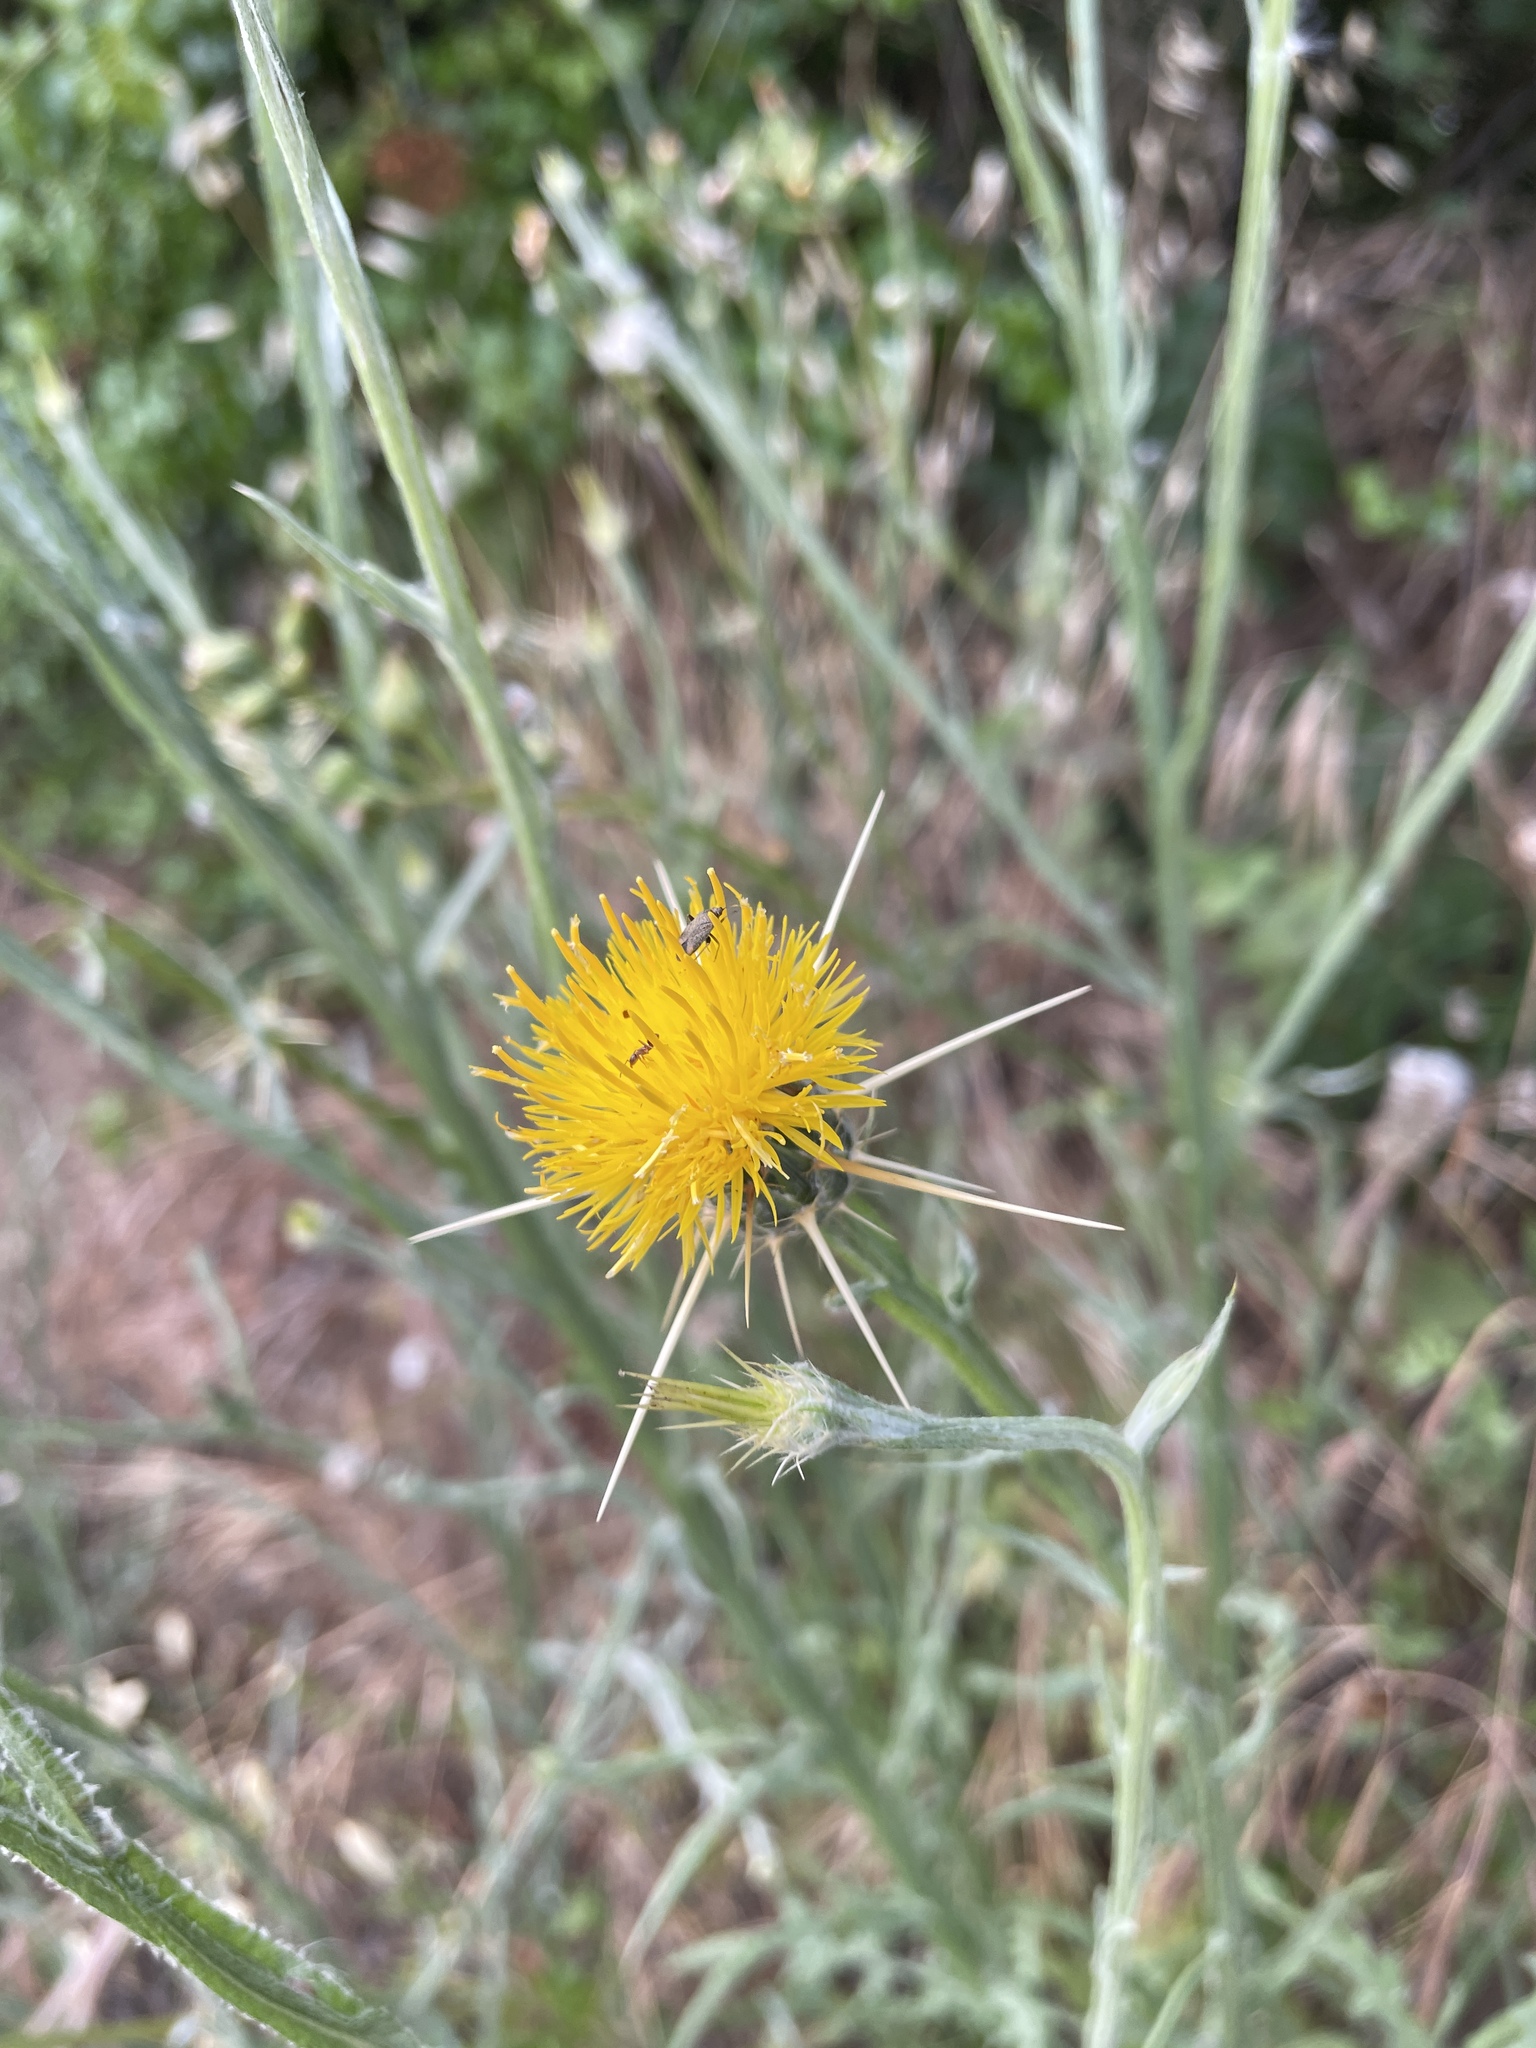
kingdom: Plantae
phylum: Tracheophyta
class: Magnoliopsida
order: Asterales
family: Asteraceae
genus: Centaurea
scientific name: Centaurea solstitialis
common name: Yellow star-thistle
